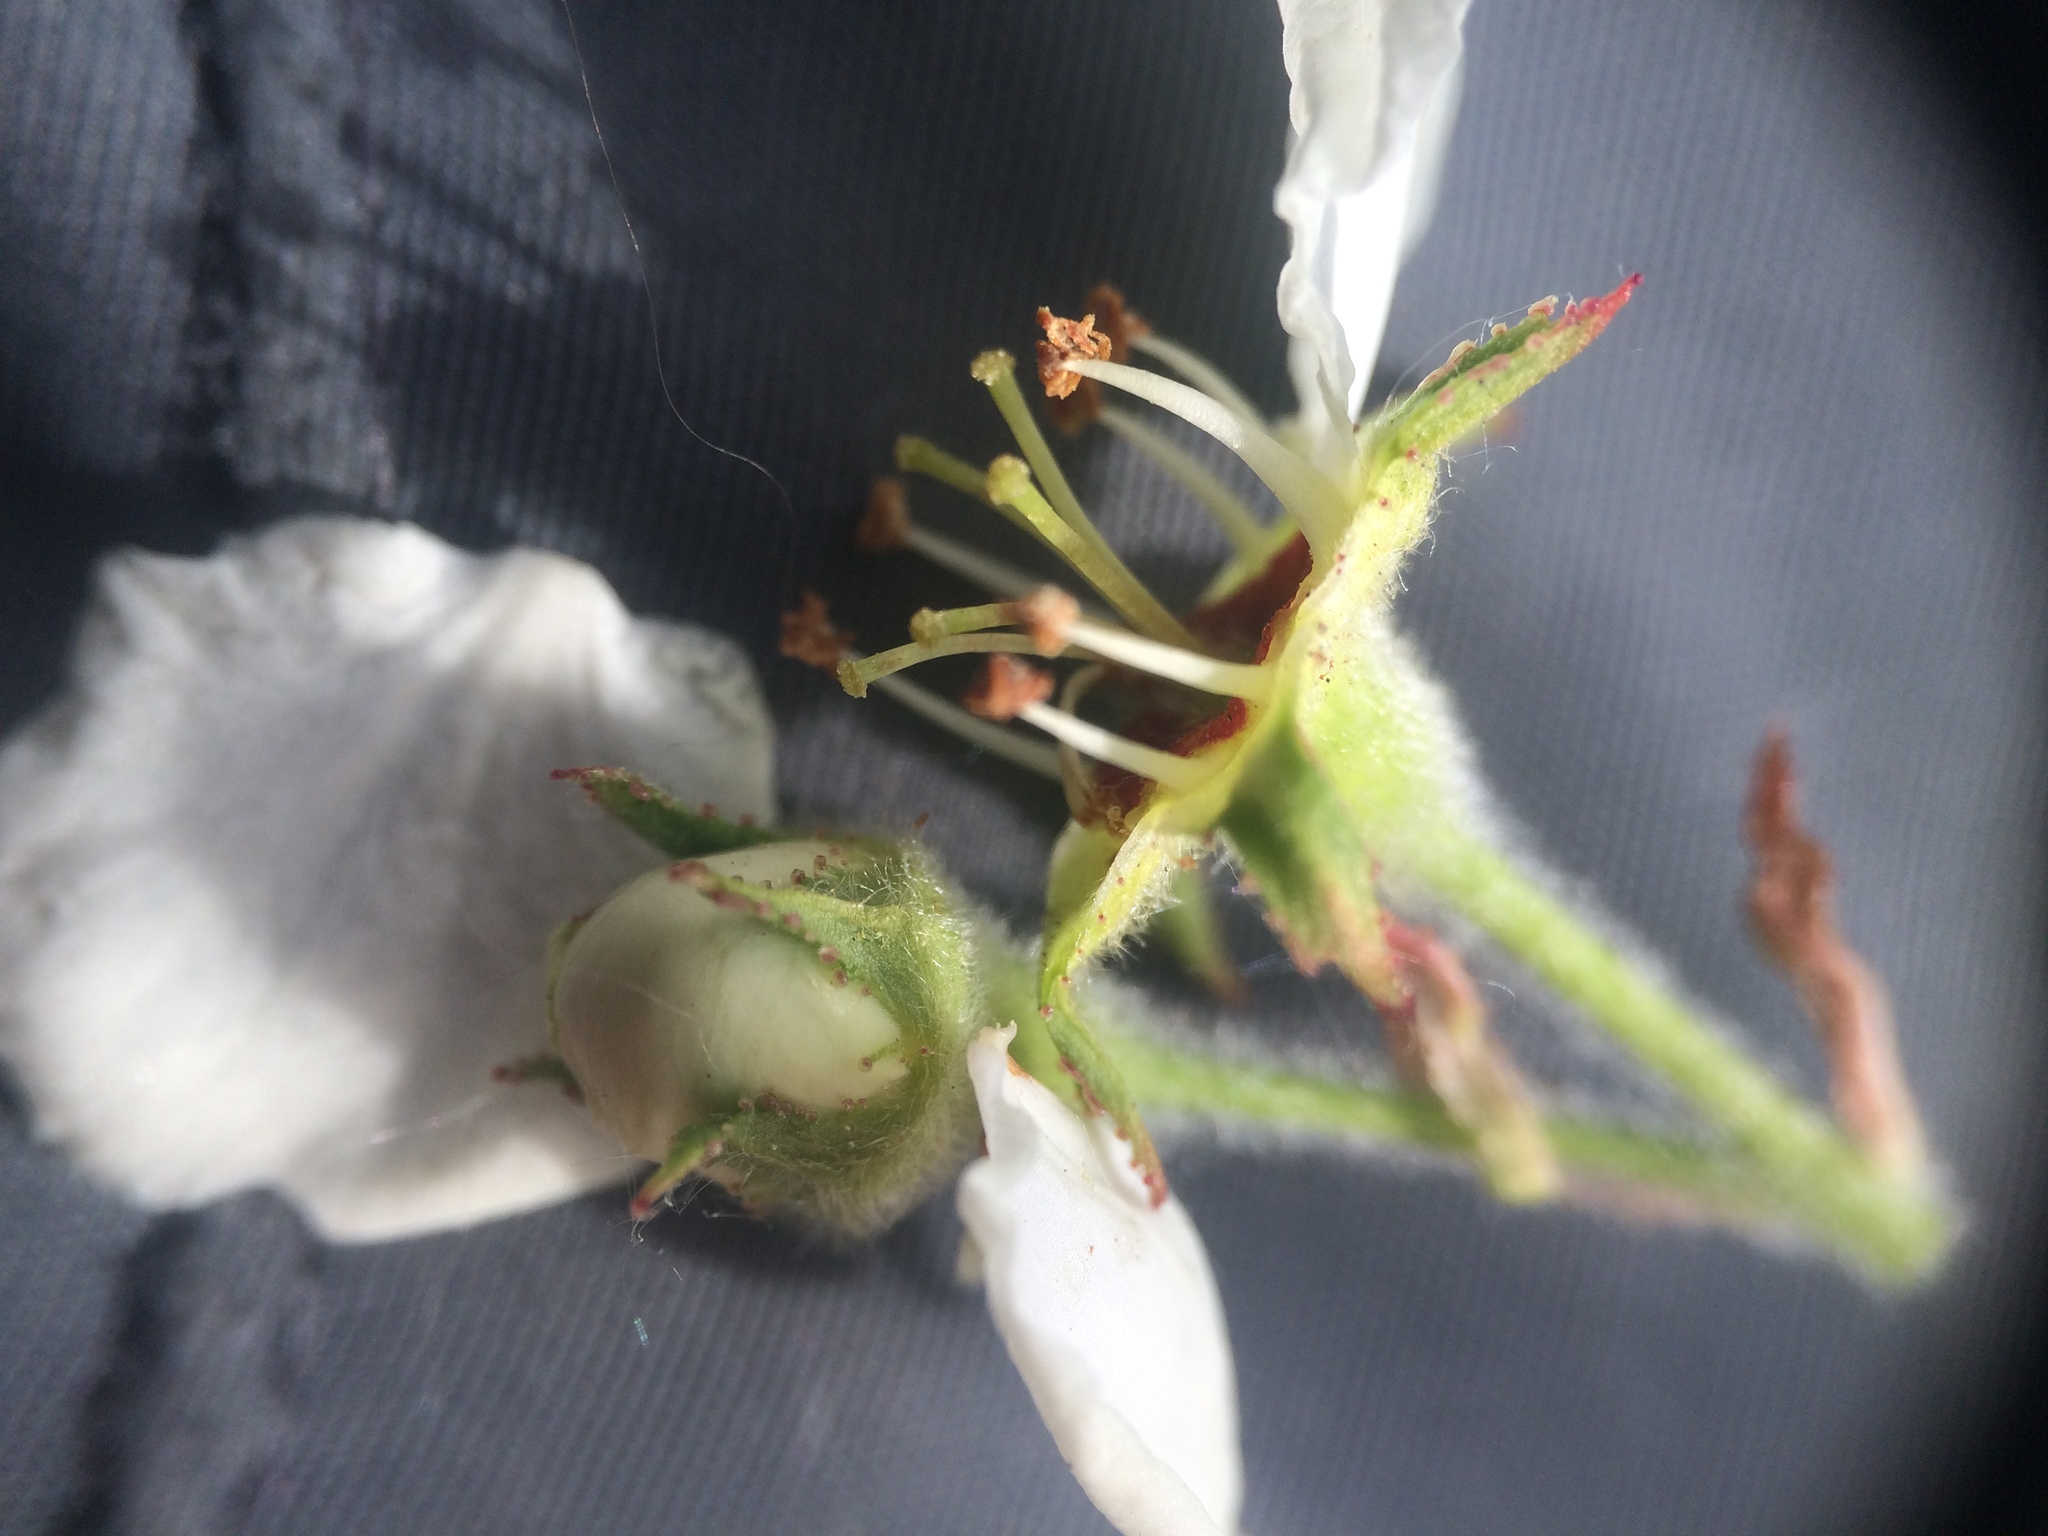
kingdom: Plantae
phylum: Tracheophyta
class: Magnoliopsida
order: Rosales
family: Rosaceae
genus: Crataegus
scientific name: Crataegus submollis
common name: Hairy cockspurthorn
